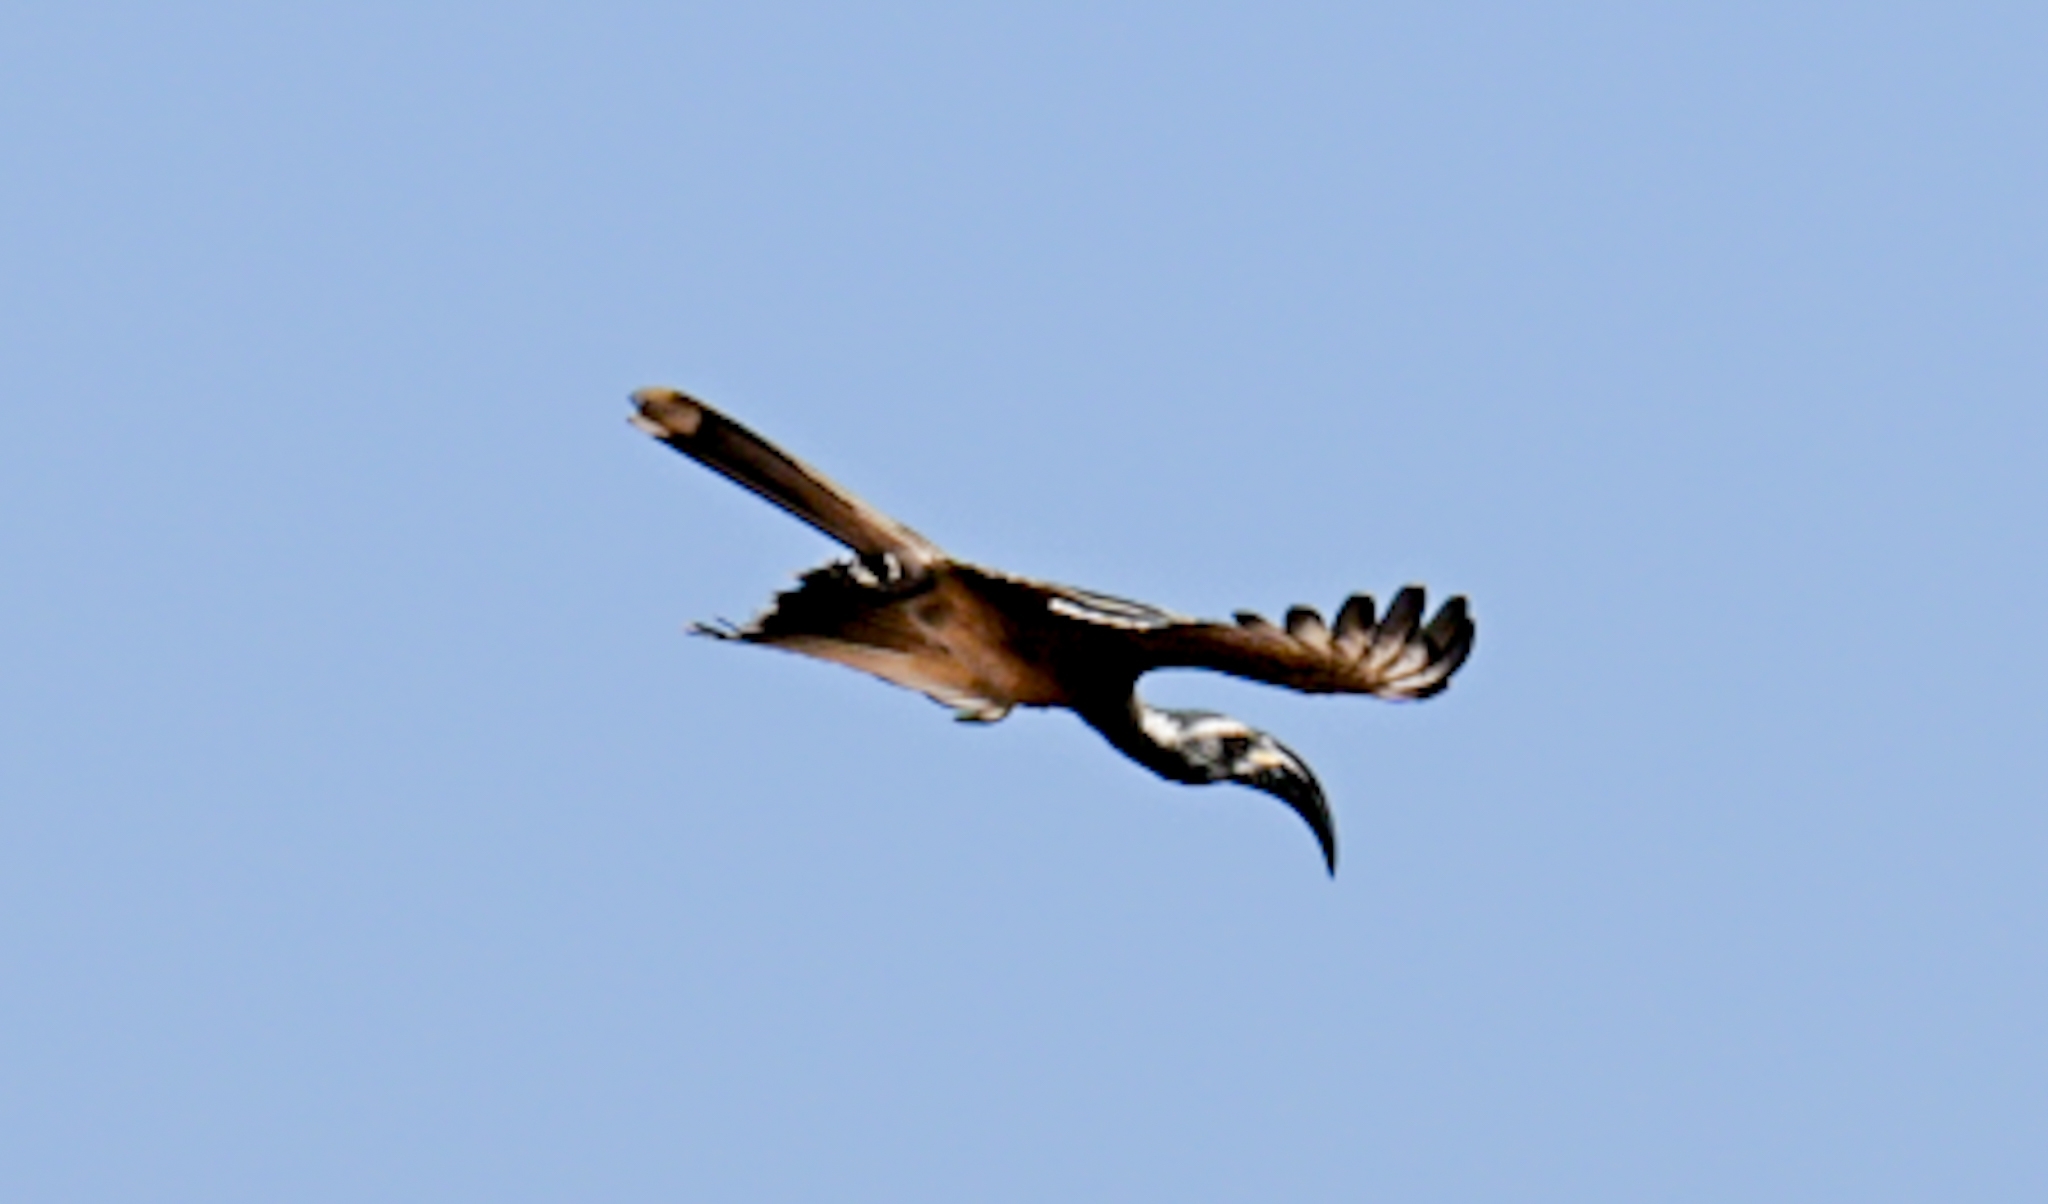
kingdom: Animalia
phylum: Chordata
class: Aves
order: Bucerotiformes
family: Bucerotidae
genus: Lophoceros
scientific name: Lophoceros nasutus
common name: African grey hornbill
